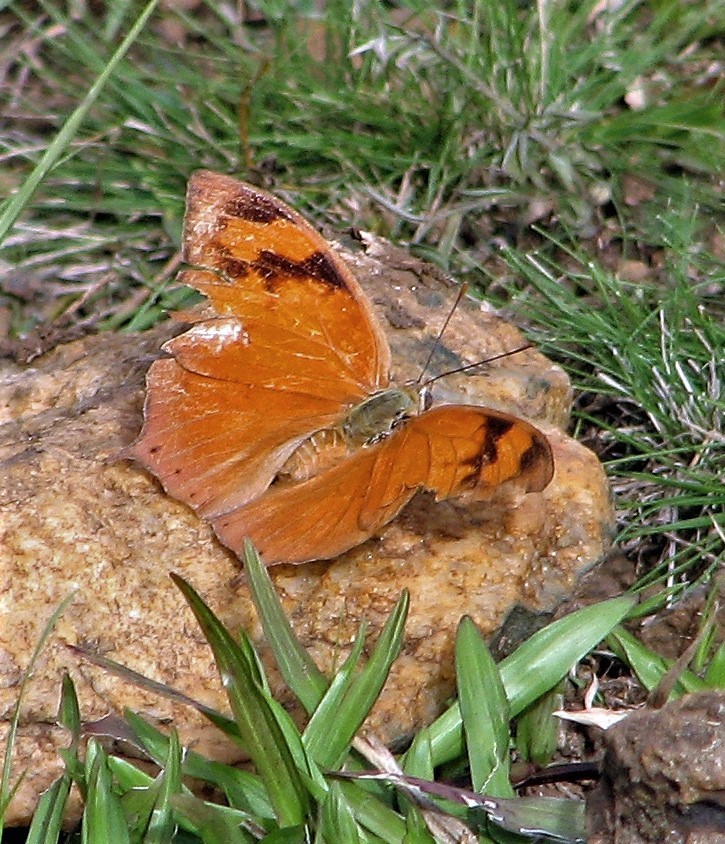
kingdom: Animalia
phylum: Arthropoda
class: Insecta
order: Lepidoptera
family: Nymphalidae
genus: Fountainea
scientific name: Fountainea
